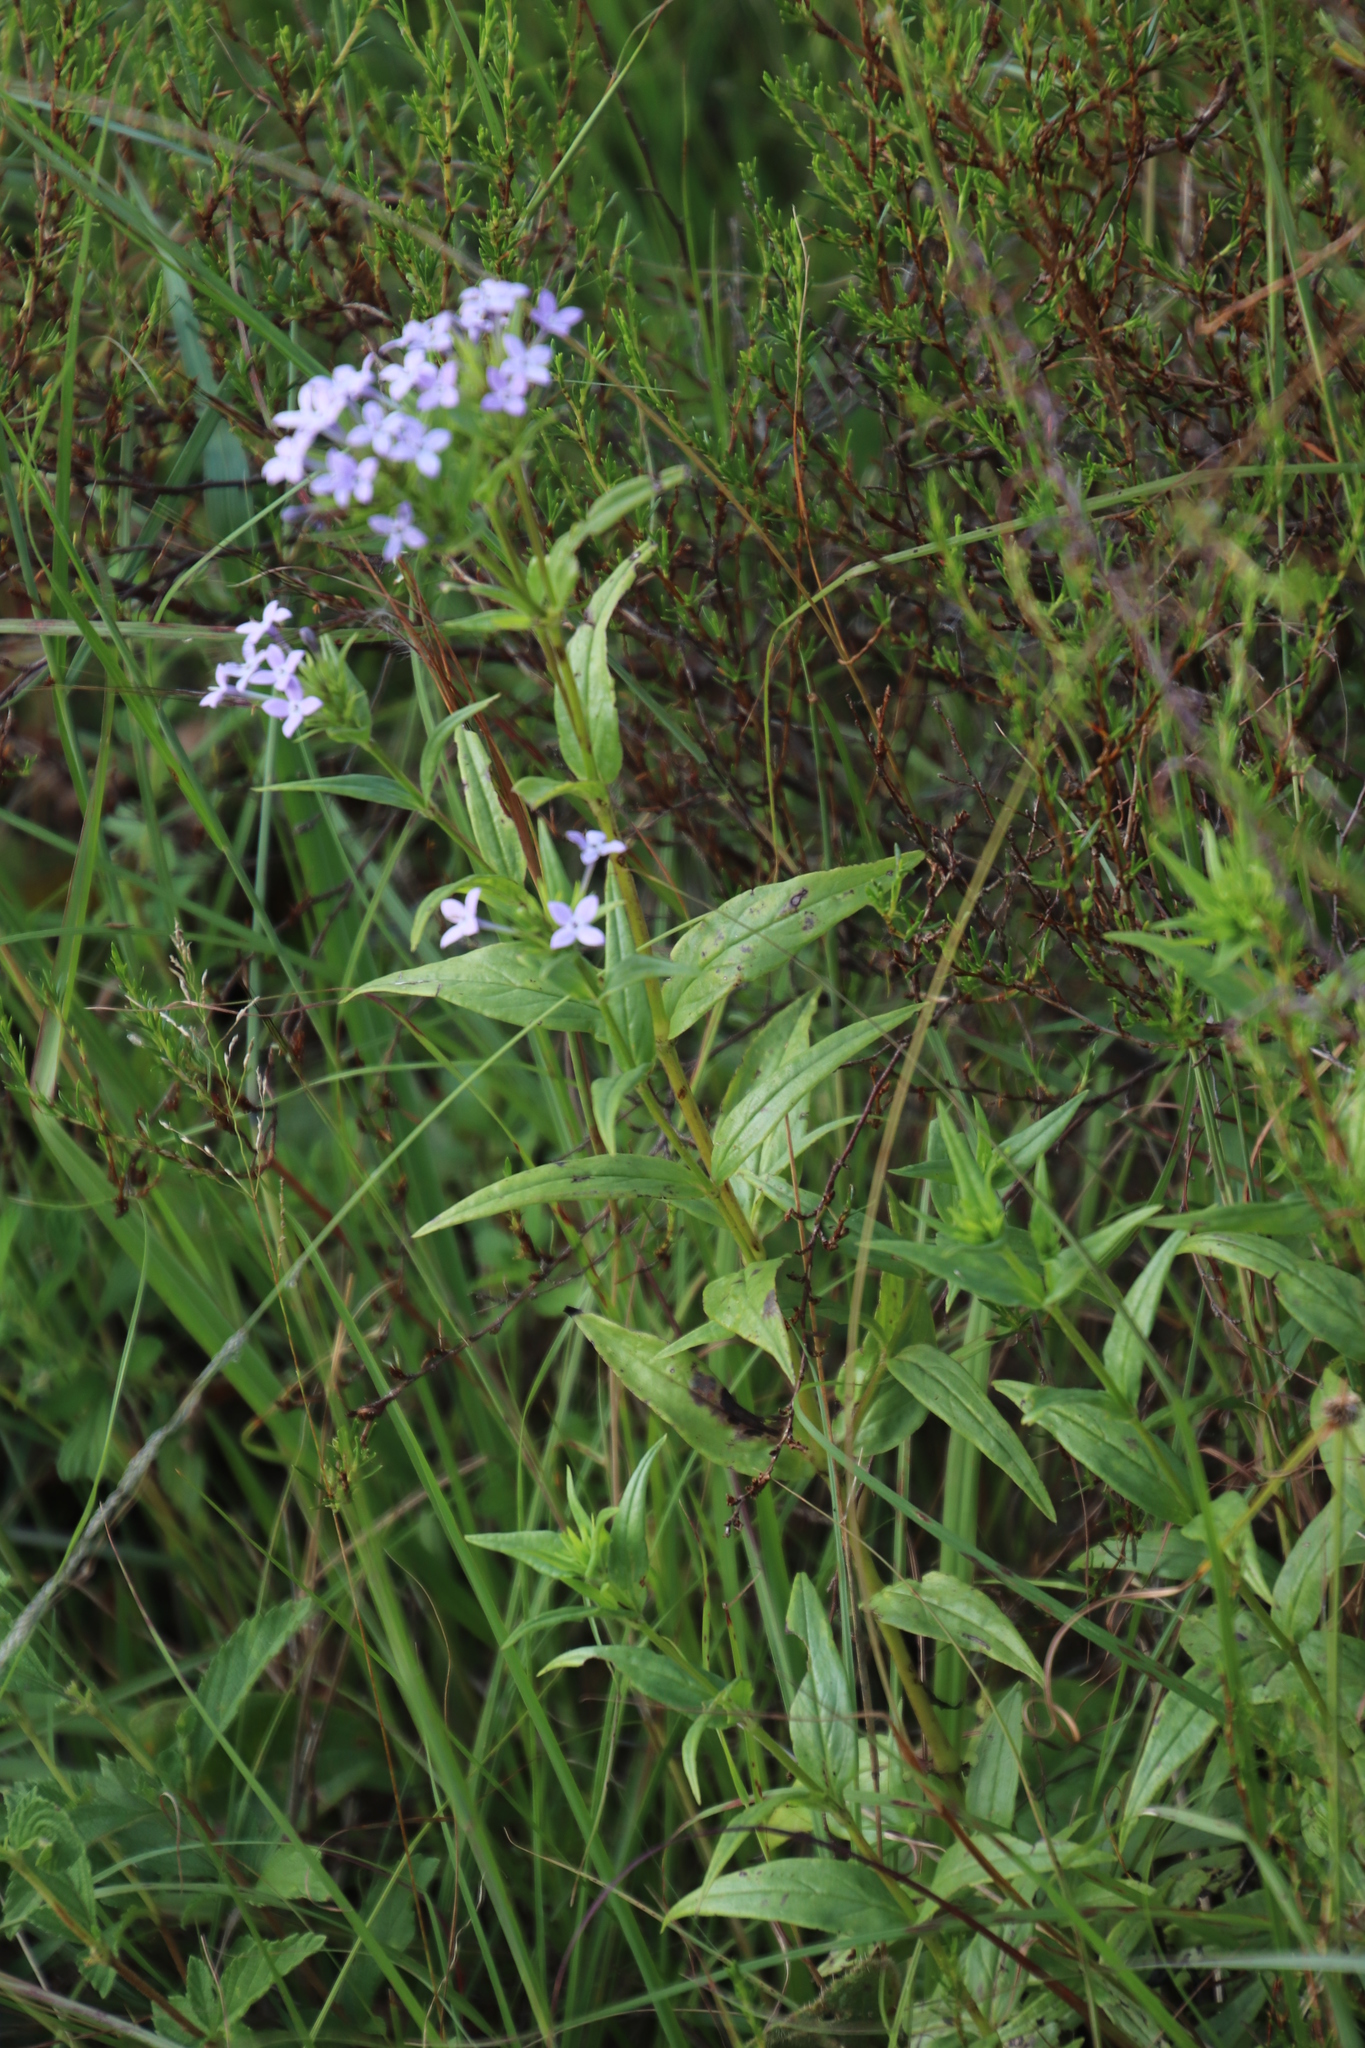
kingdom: Plantae
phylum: Tracheophyta
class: Magnoliopsida
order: Gentianales
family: Rubiaceae
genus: Conostomium
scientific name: Conostomium natalense
